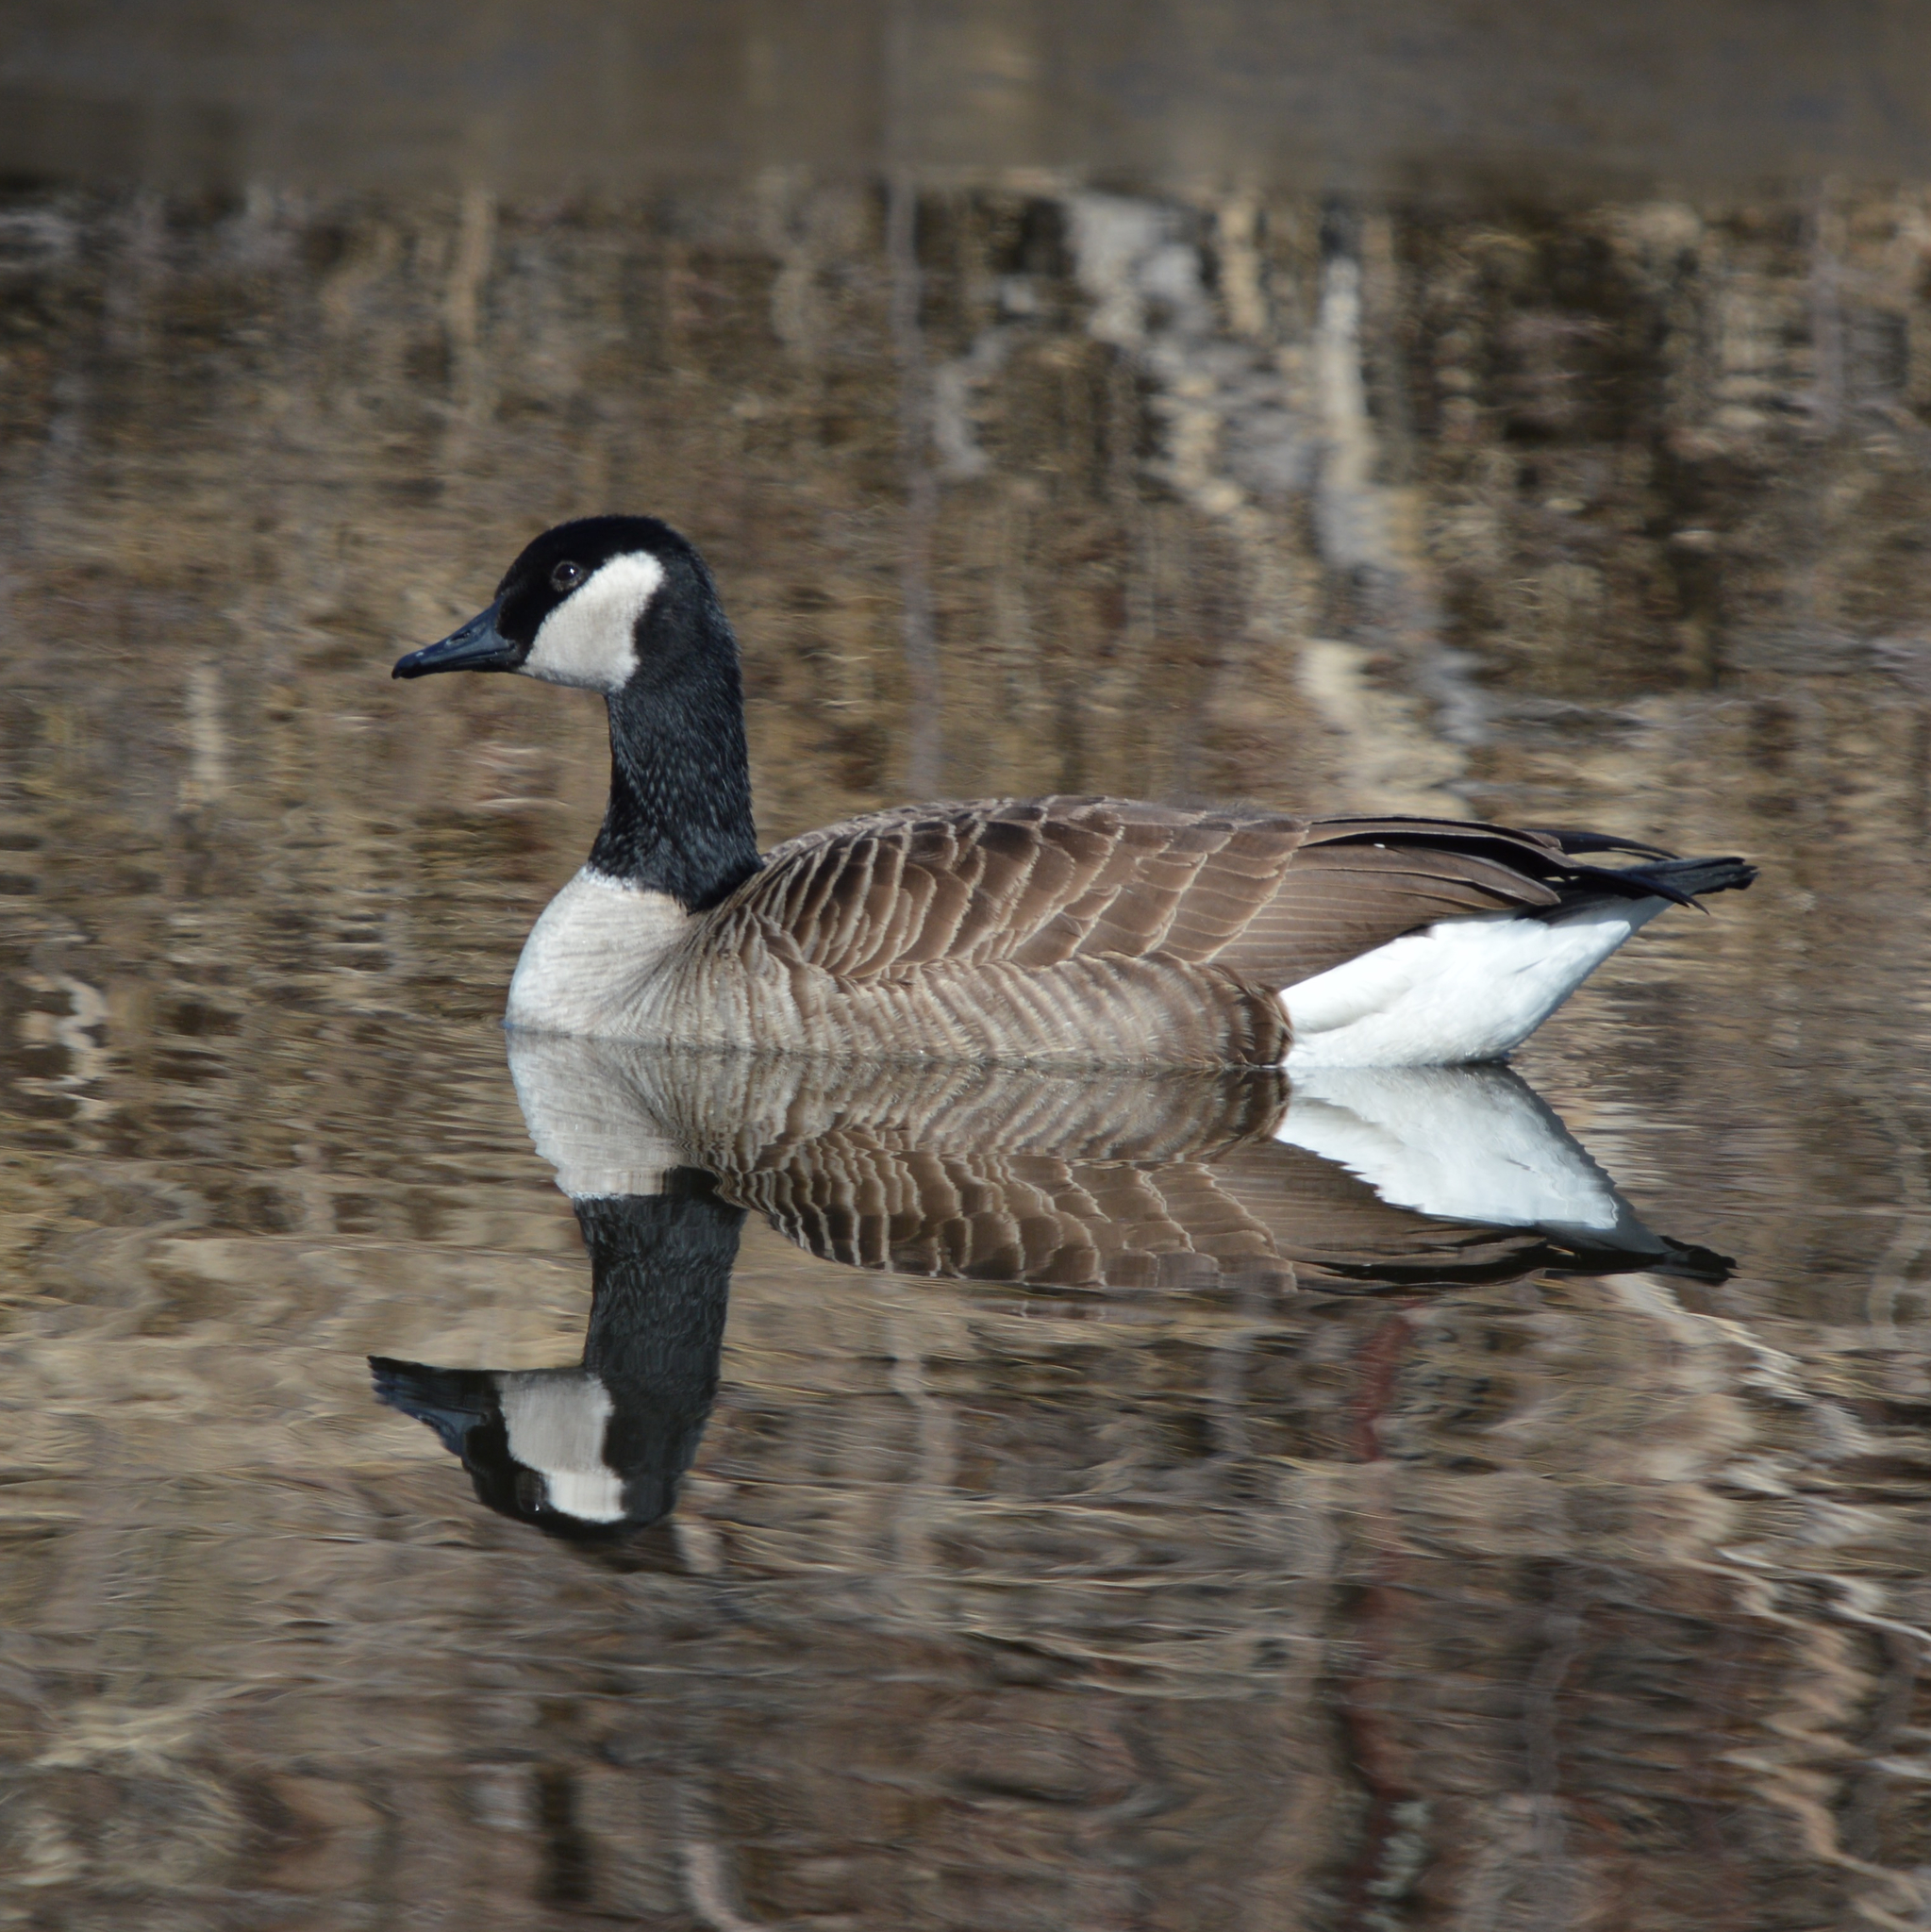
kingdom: Animalia
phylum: Chordata
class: Aves
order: Anseriformes
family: Anatidae
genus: Branta
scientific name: Branta canadensis
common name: Canada goose
